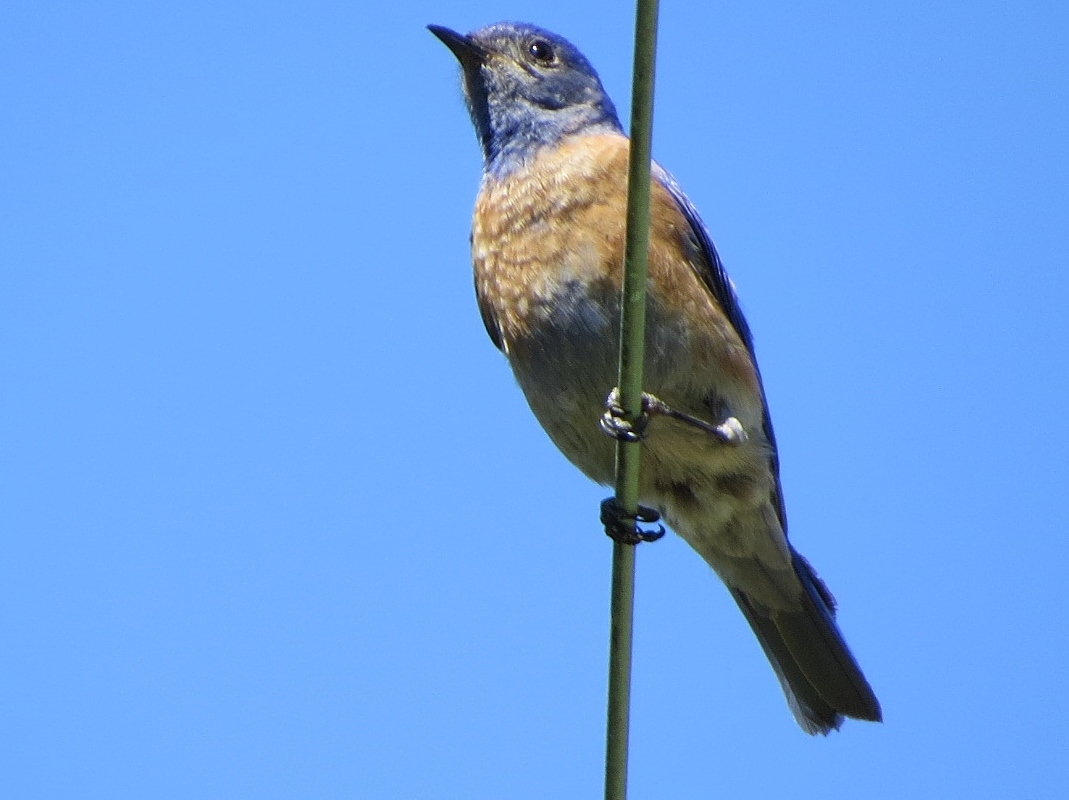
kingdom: Animalia
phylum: Chordata
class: Aves
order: Passeriformes
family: Turdidae
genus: Sialia
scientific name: Sialia mexicana
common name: Western bluebird
